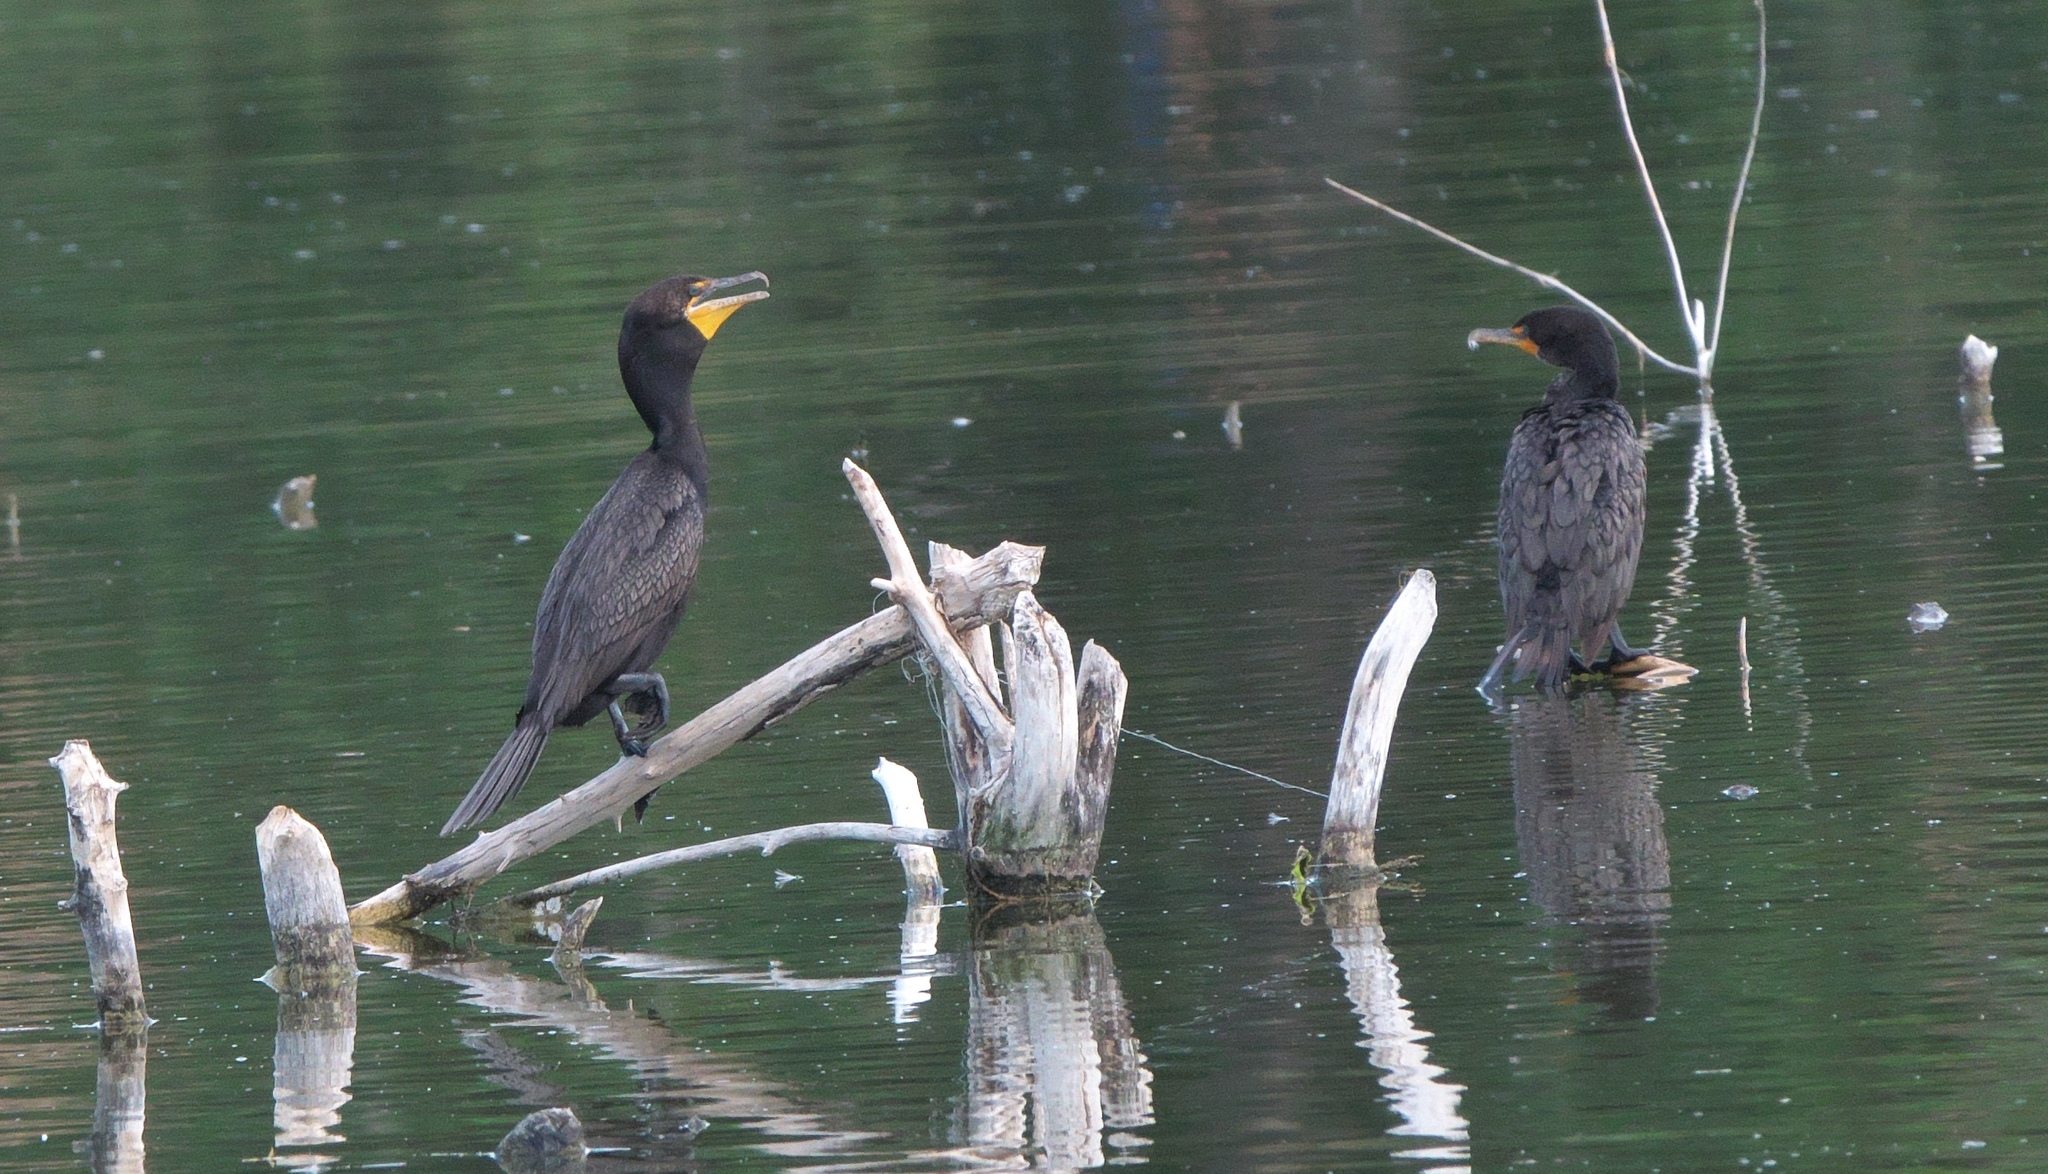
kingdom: Animalia
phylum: Chordata
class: Aves
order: Suliformes
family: Phalacrocoracidae
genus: Phalacrocorax
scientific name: Phalacrocorax auritus
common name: Double-crested cormorant
